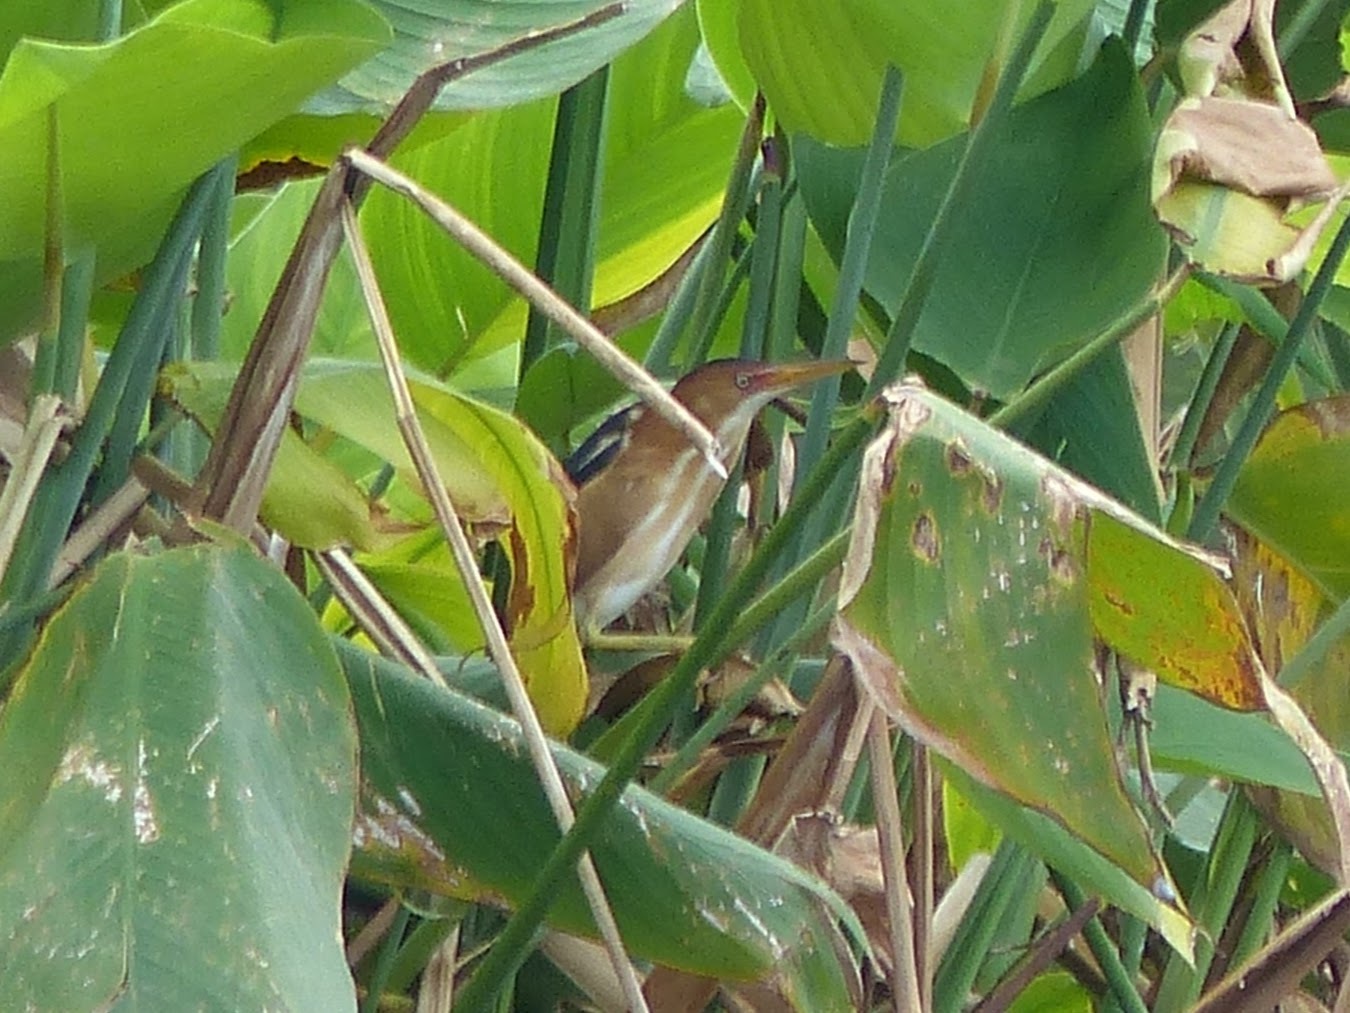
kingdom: Animalia
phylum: Chordata
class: Aves
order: Pelecaniformes
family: Ardeidae
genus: Ixobrychus
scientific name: Ixobrychus exilis
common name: Least bittern
